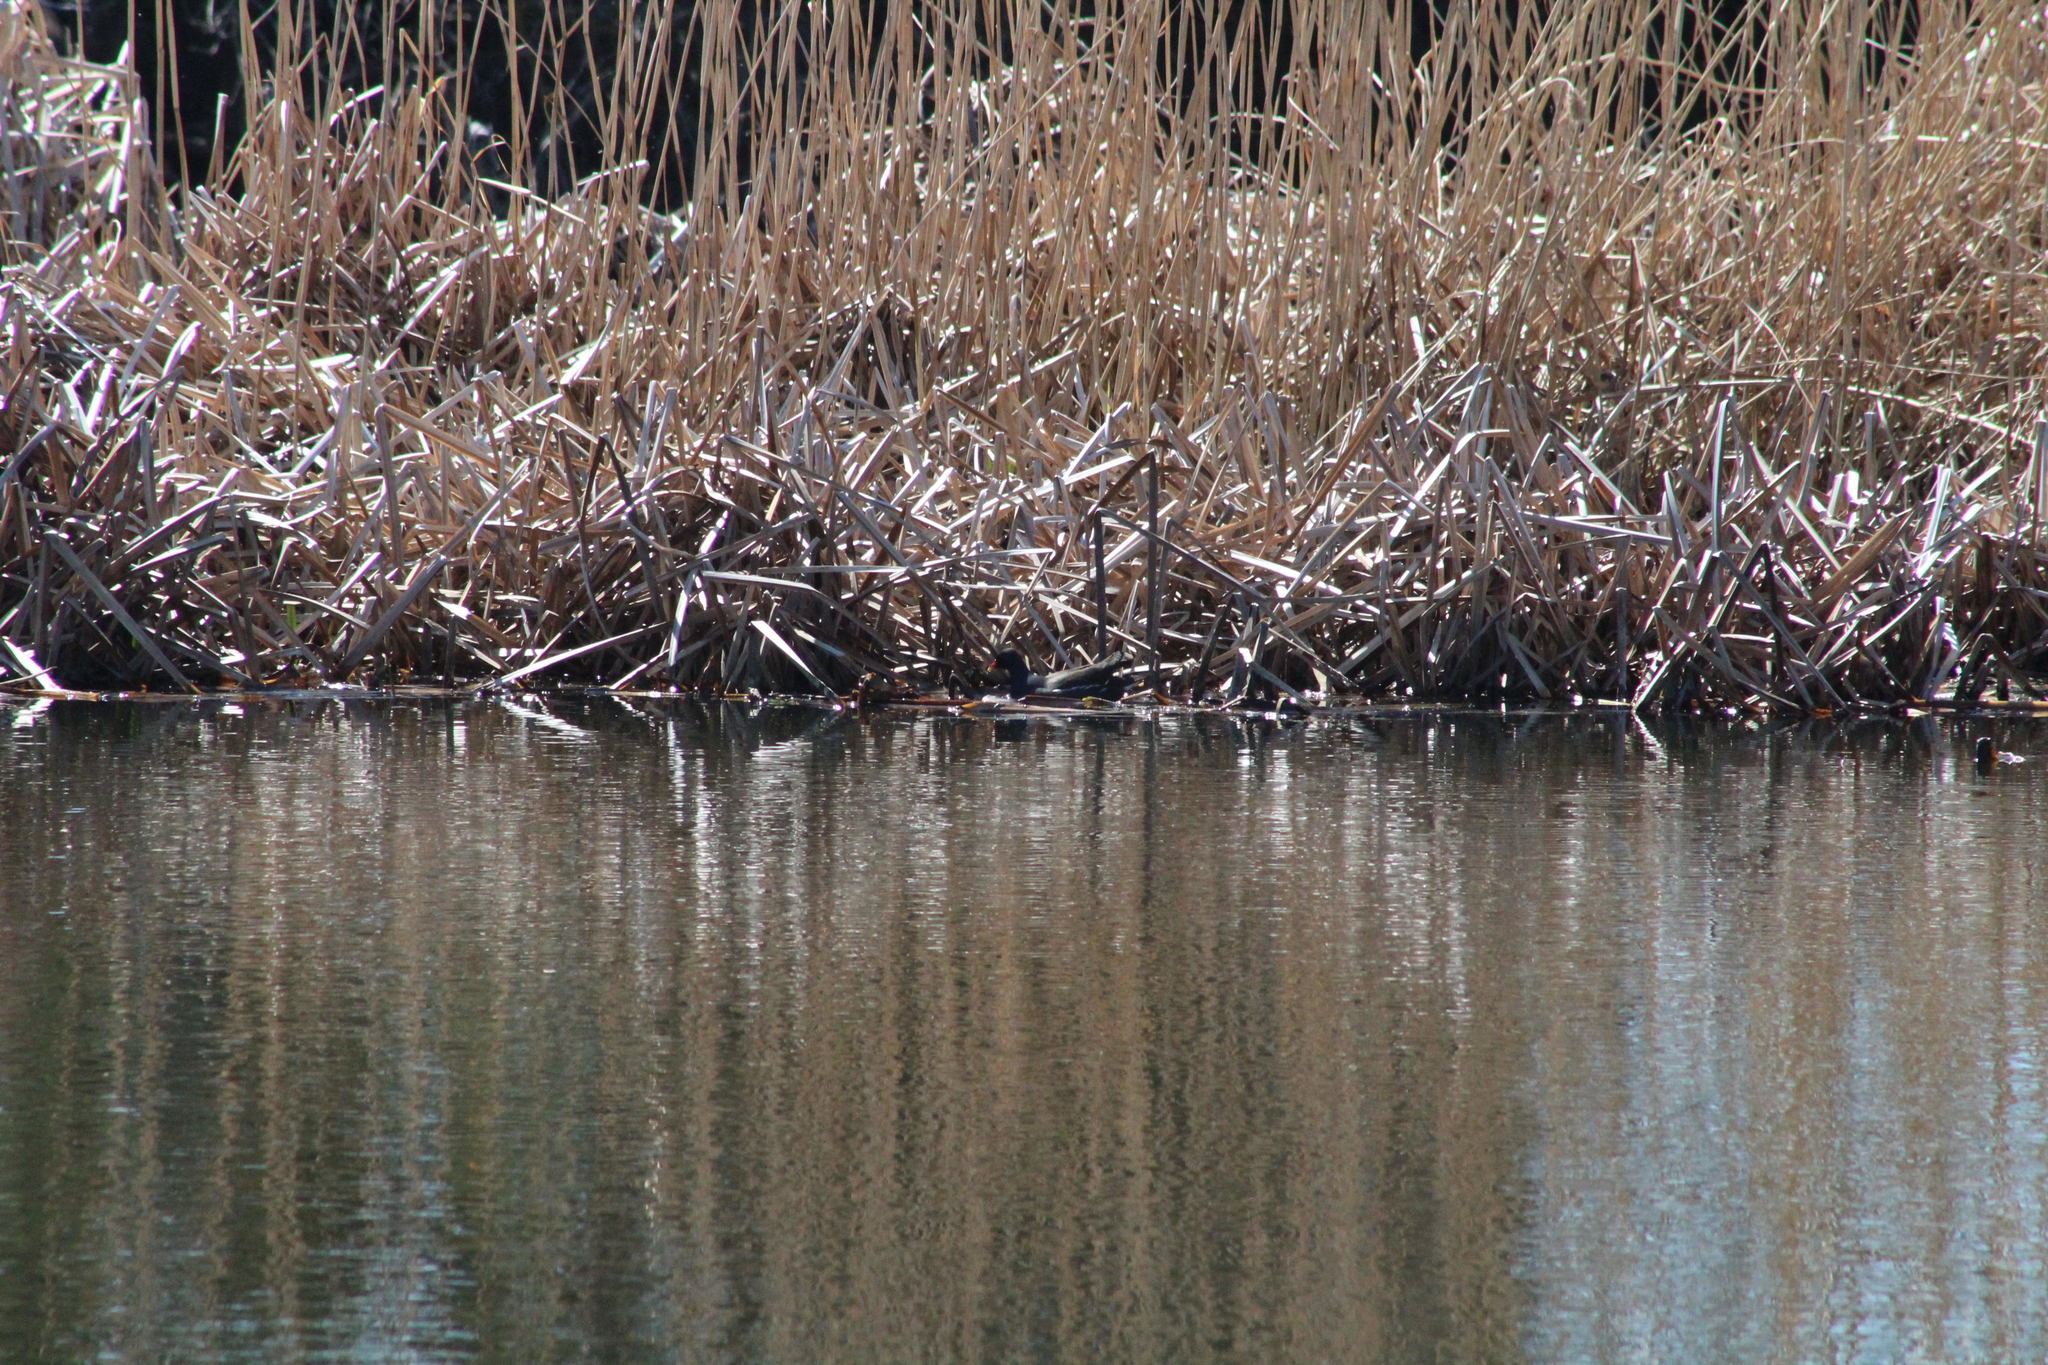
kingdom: Animalia
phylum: Chordata
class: Aves
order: Gruiformes
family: Rallidae
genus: Gallinula
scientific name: Gallinula chloropus
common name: Common moorhen
